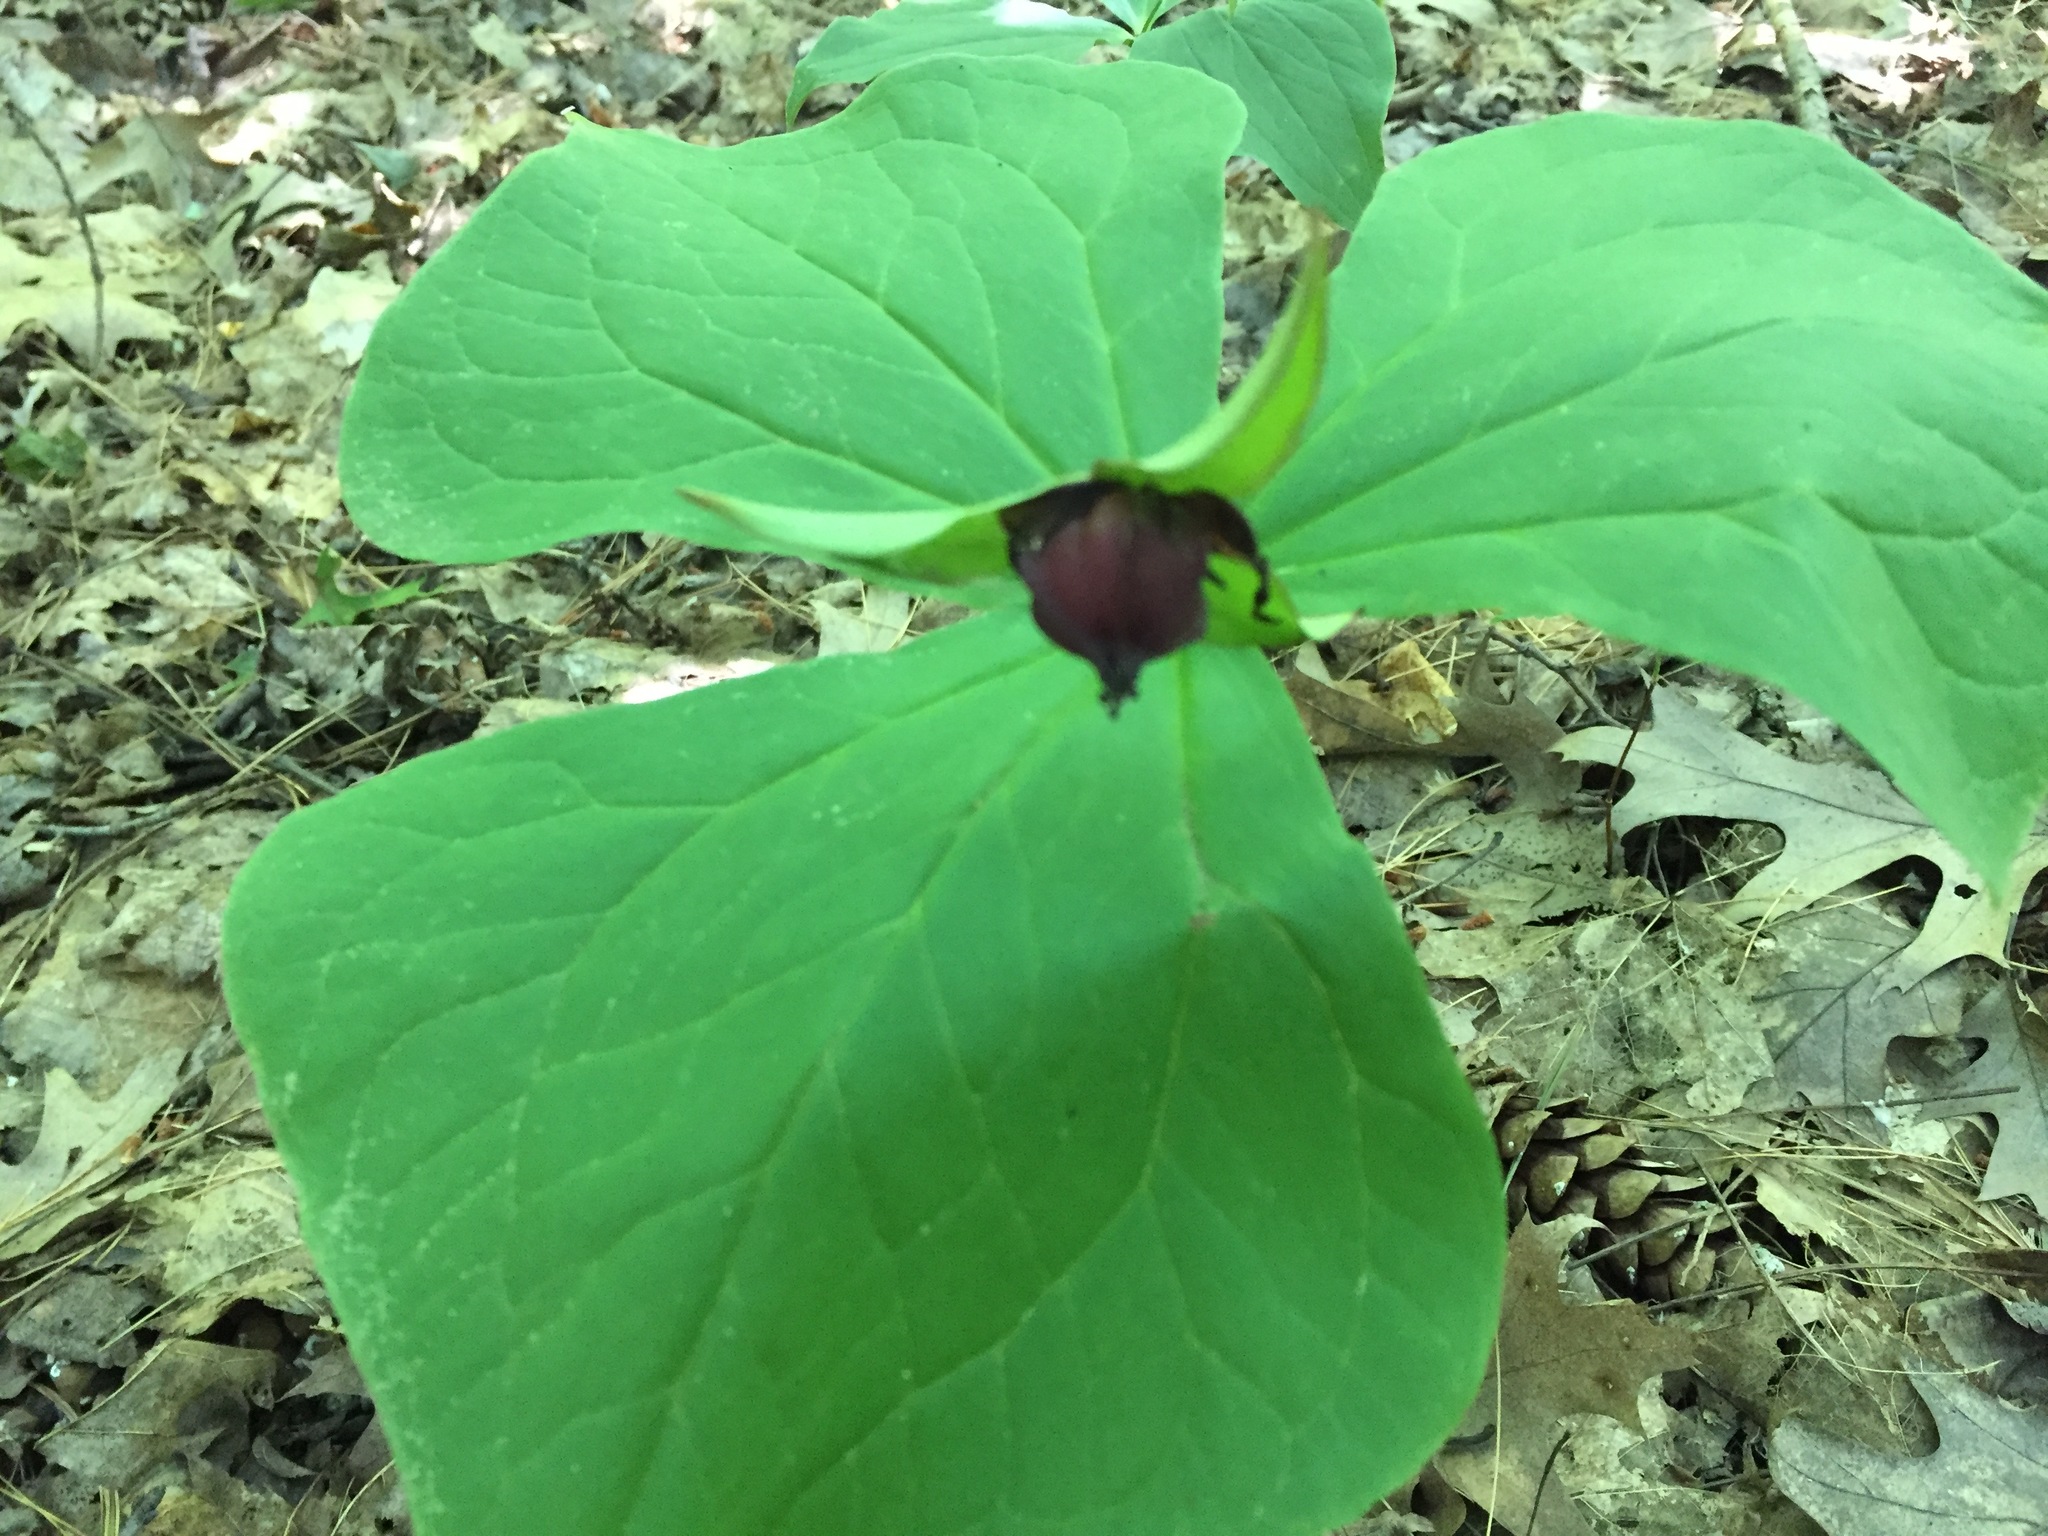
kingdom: Plantae
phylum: Tracheophyta
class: Liliopsida
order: Liliales
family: Melanthiaceae
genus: Trillium
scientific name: Trillium erectum
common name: Purple trillium
